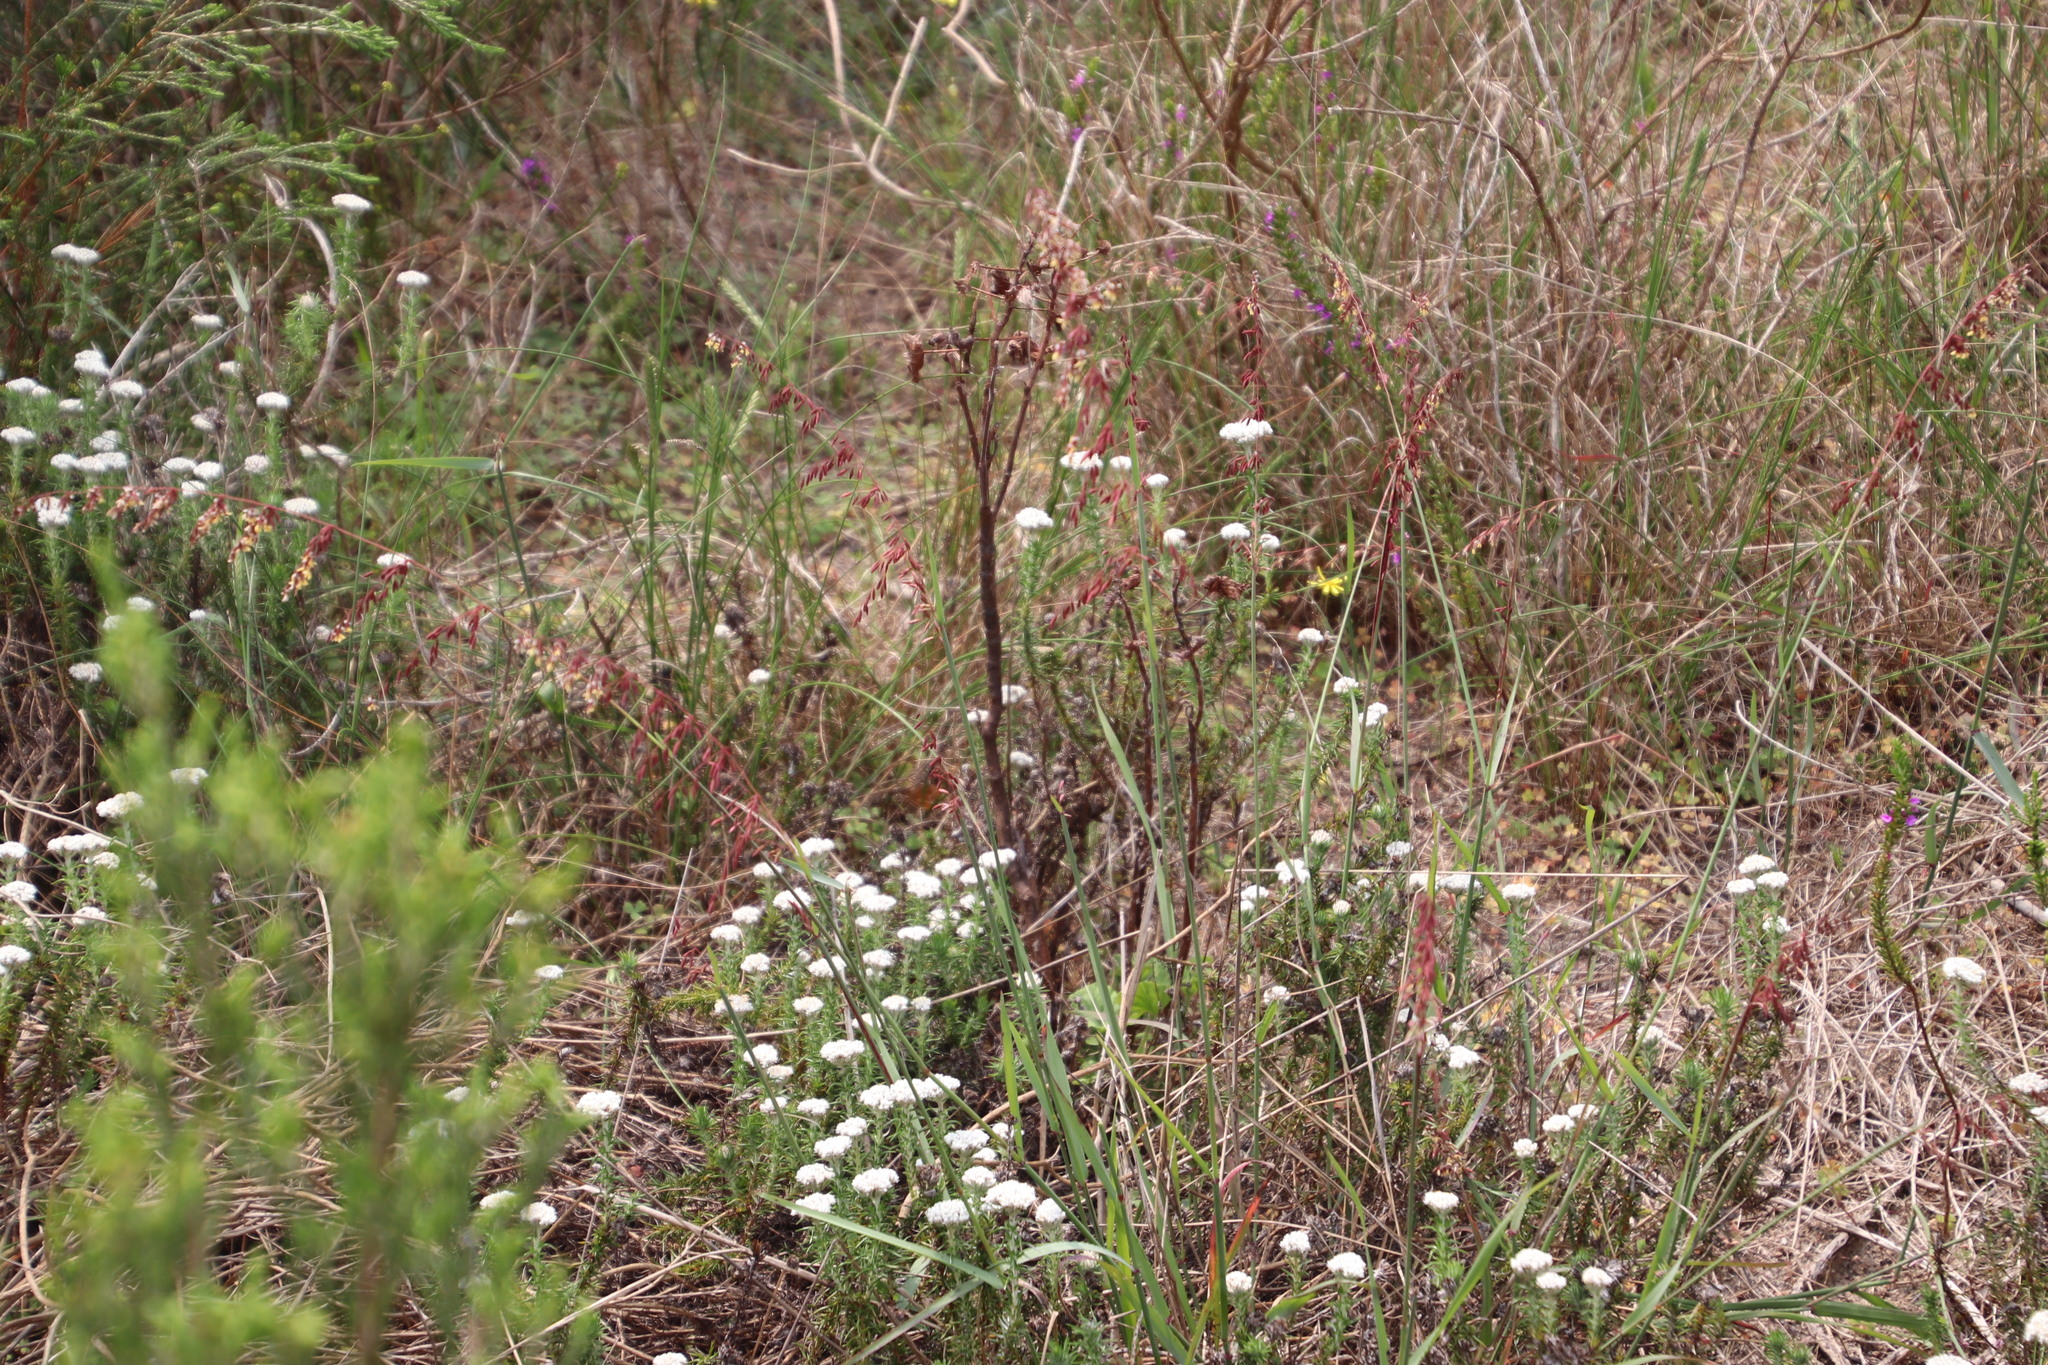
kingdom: Plantae
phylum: Tracheophyta
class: Liliopsida
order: Poales
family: Poaceae
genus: Ehrharta
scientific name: Ehrharta calycina
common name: Perennial veldtgrass
